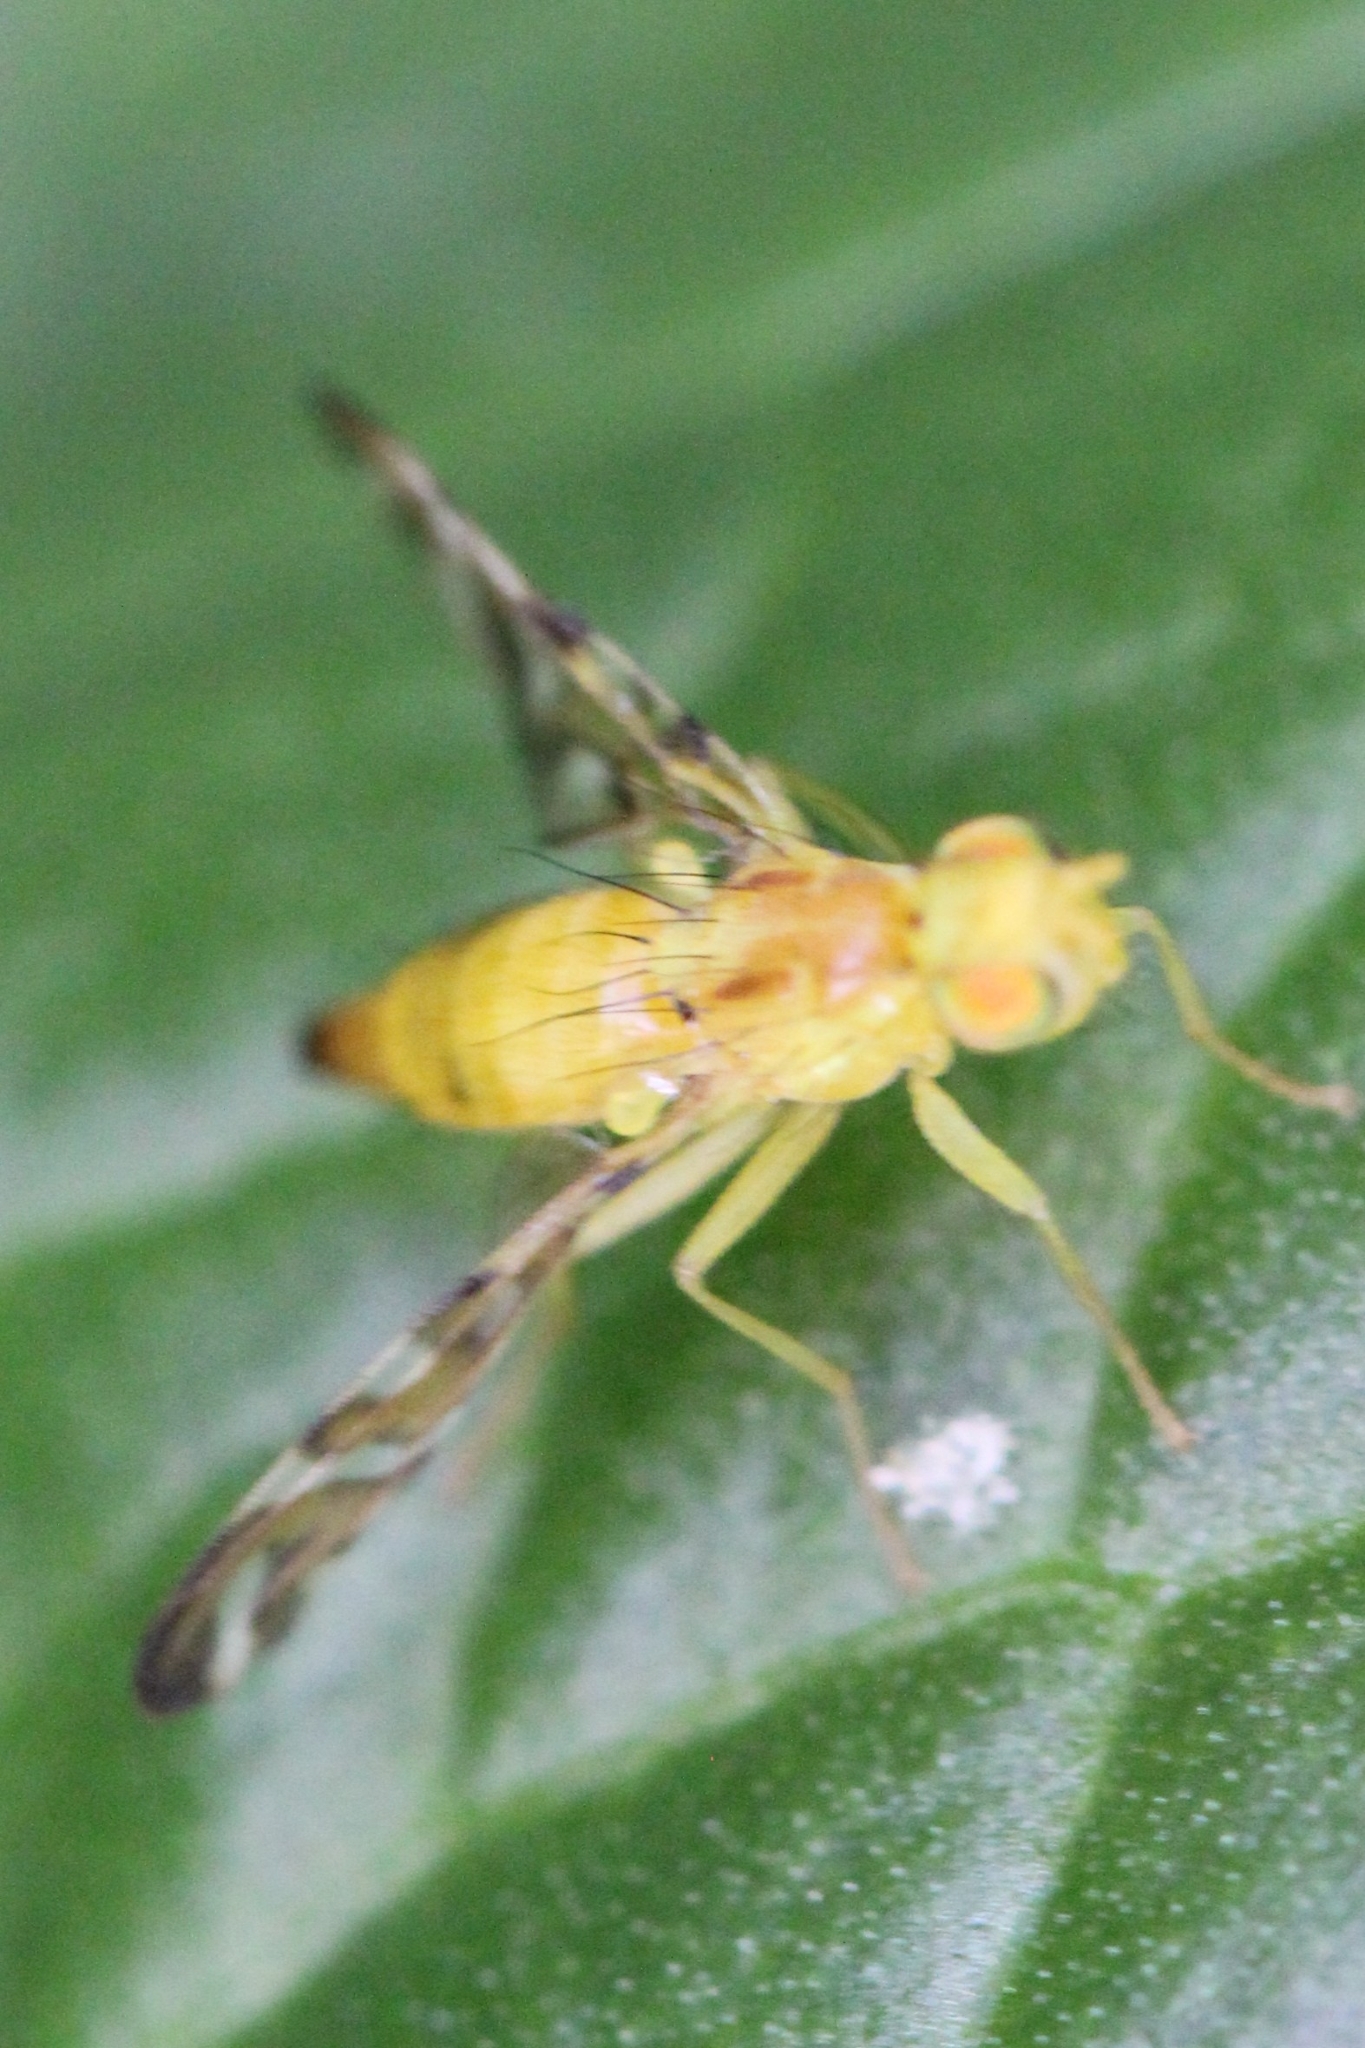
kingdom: Animalia
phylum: Arthropoda
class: Insecta
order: Diptera
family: Tephritidae
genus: Strauzia
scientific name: Strauzia longipennis
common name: Sunflower maggot
